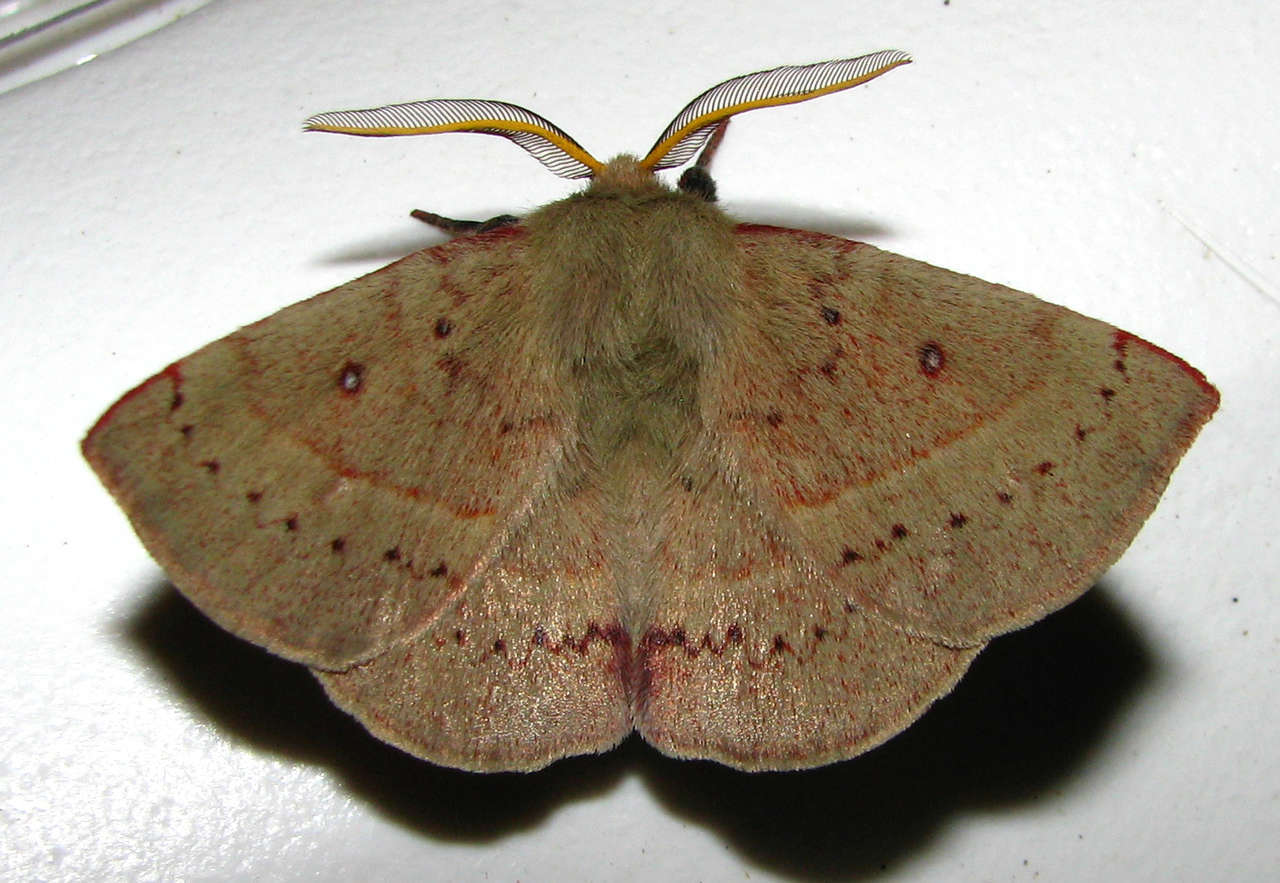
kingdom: Animalia
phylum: Arthropoda
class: Insecta
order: Lepidoptera
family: Anthelidae
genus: Anthela
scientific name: Anthela acuta
